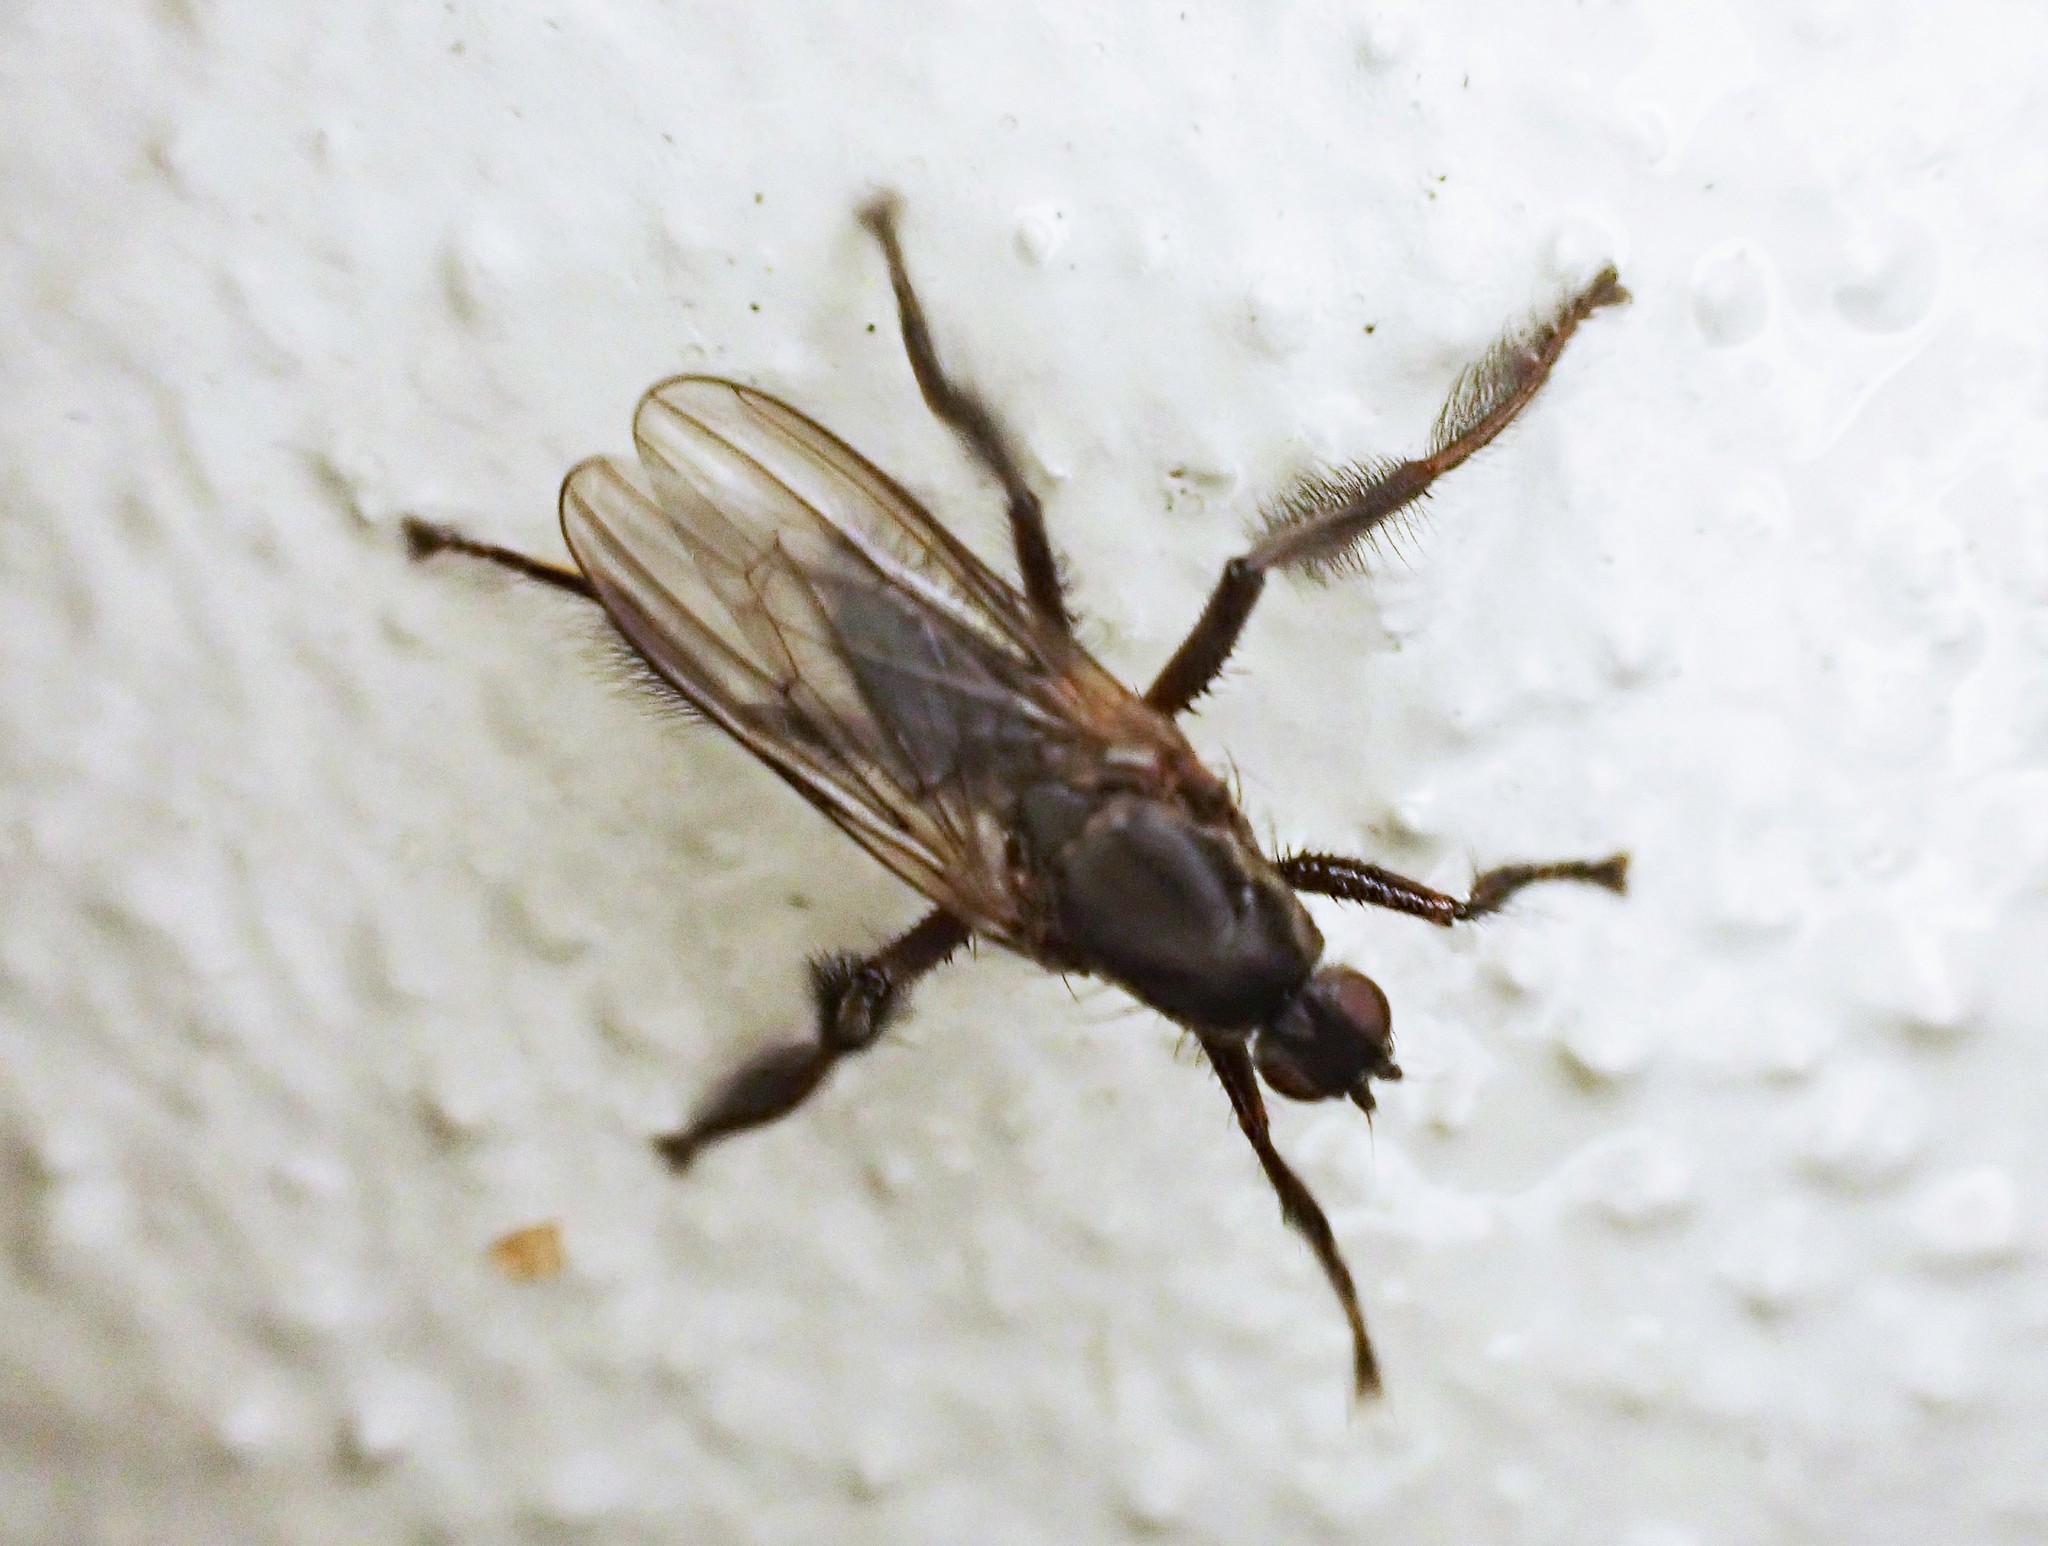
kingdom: Animalia
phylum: Arthropoda
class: Insecta
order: Diptera
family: Coelopidae
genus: Chaetocoelopa
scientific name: Chaetocoelopa littoralis
